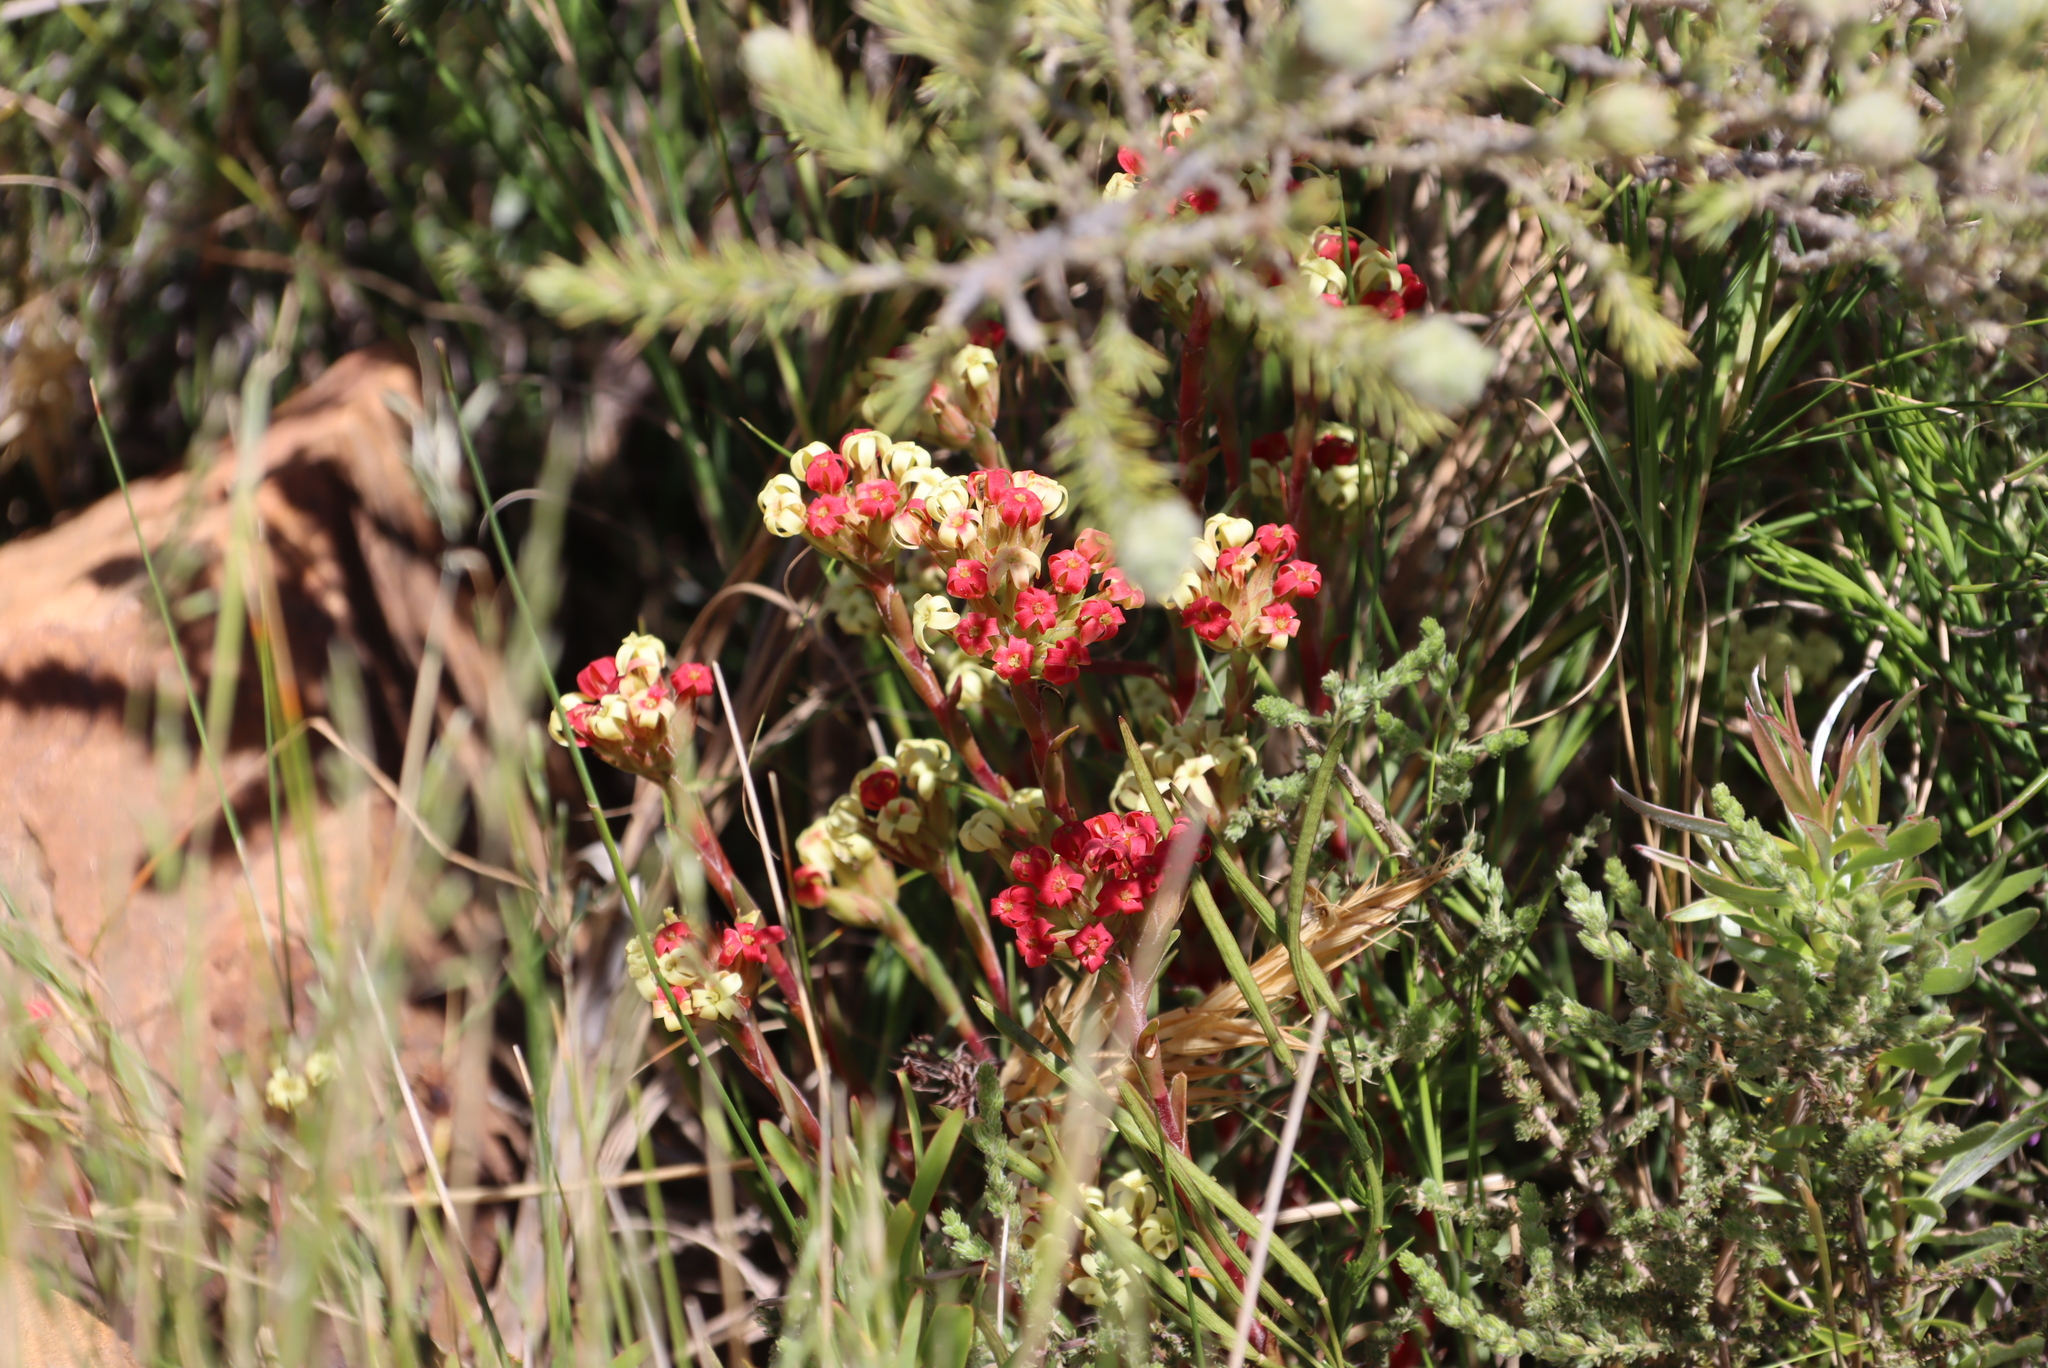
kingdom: Plantae
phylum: Tracheophyta
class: Magnoliopsida
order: Saxifragales
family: Crassulaceae
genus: Crassula
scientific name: Crassula fascicularis
